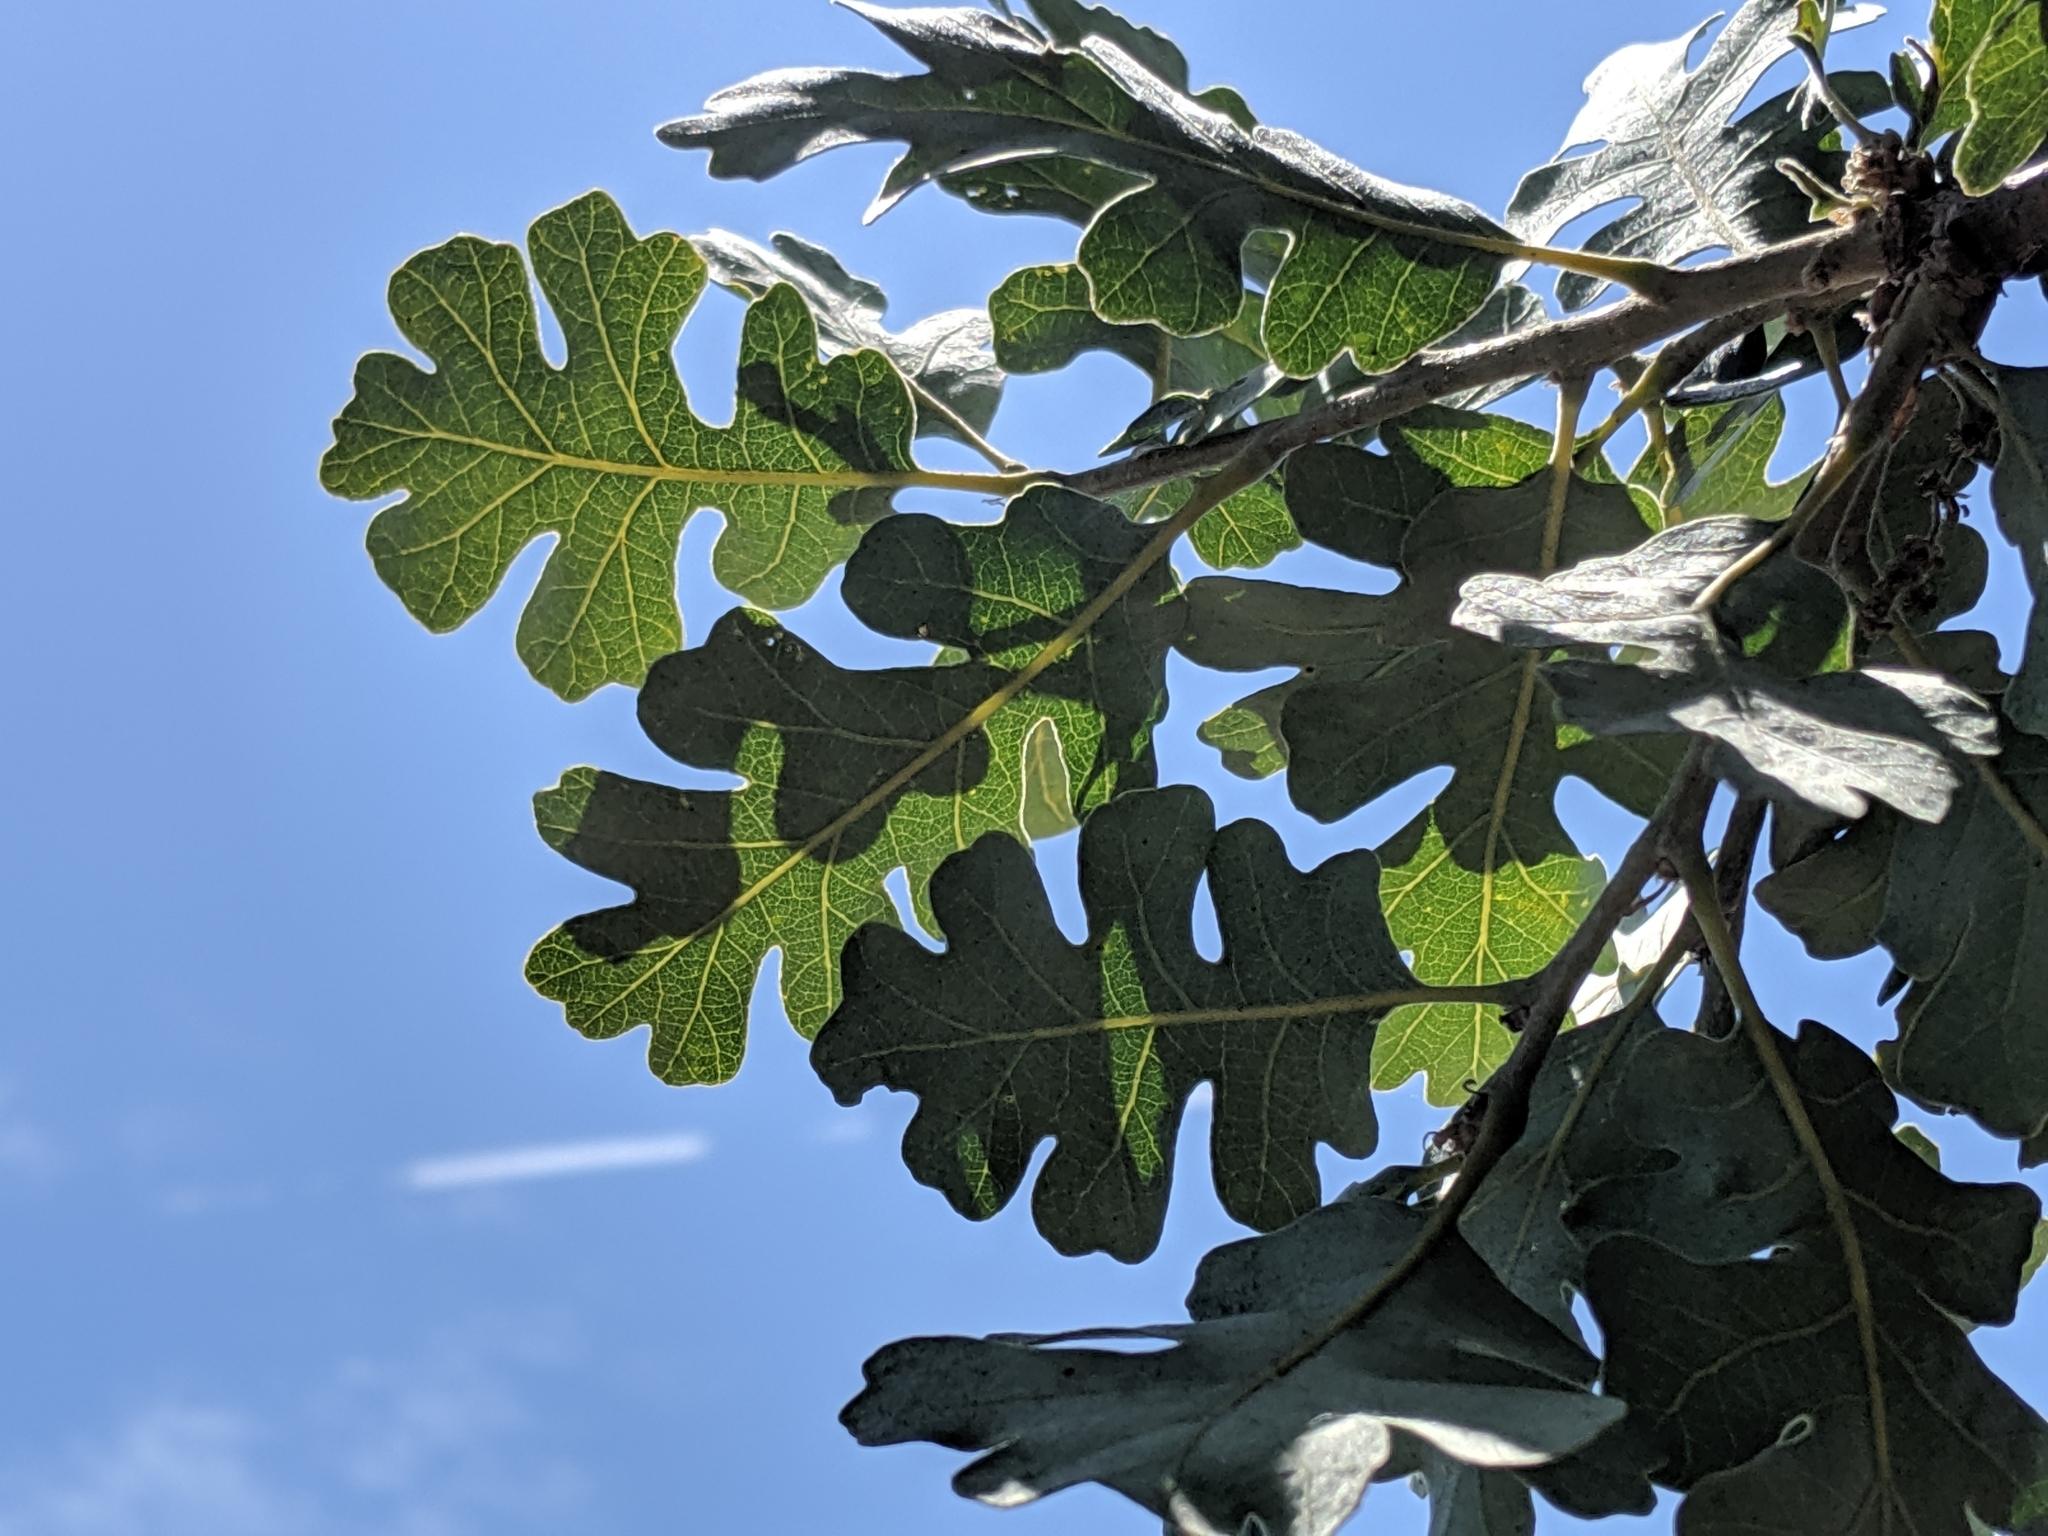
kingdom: Plantae
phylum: Tracheophyta
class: Magnoliopsida
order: Fagales
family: Fagaceae
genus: Quercus
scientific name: Quercus lobata
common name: Valley oak
